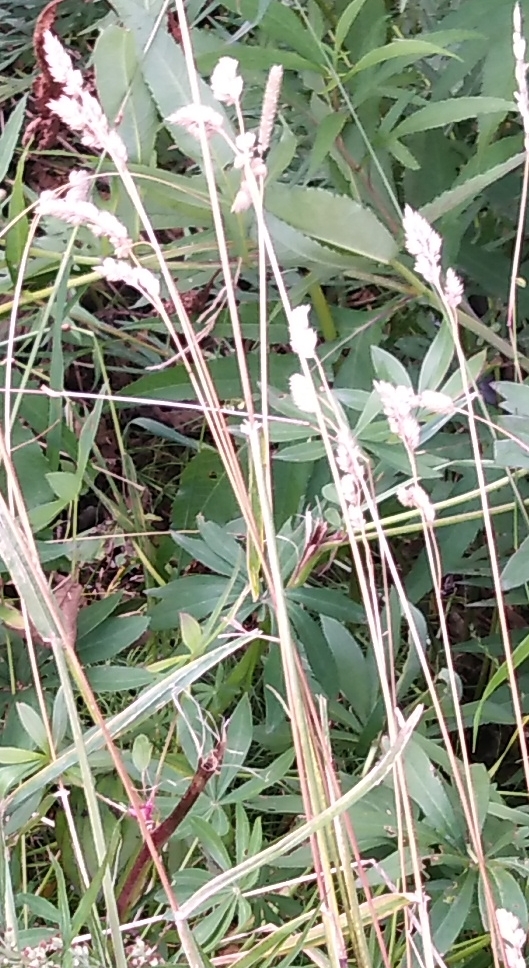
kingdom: Plantae
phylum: Tracheophyta
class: Liliopsida
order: Poales
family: Poaceae
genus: Dactylis
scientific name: Dactylis glomerata
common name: Orchardgrass
